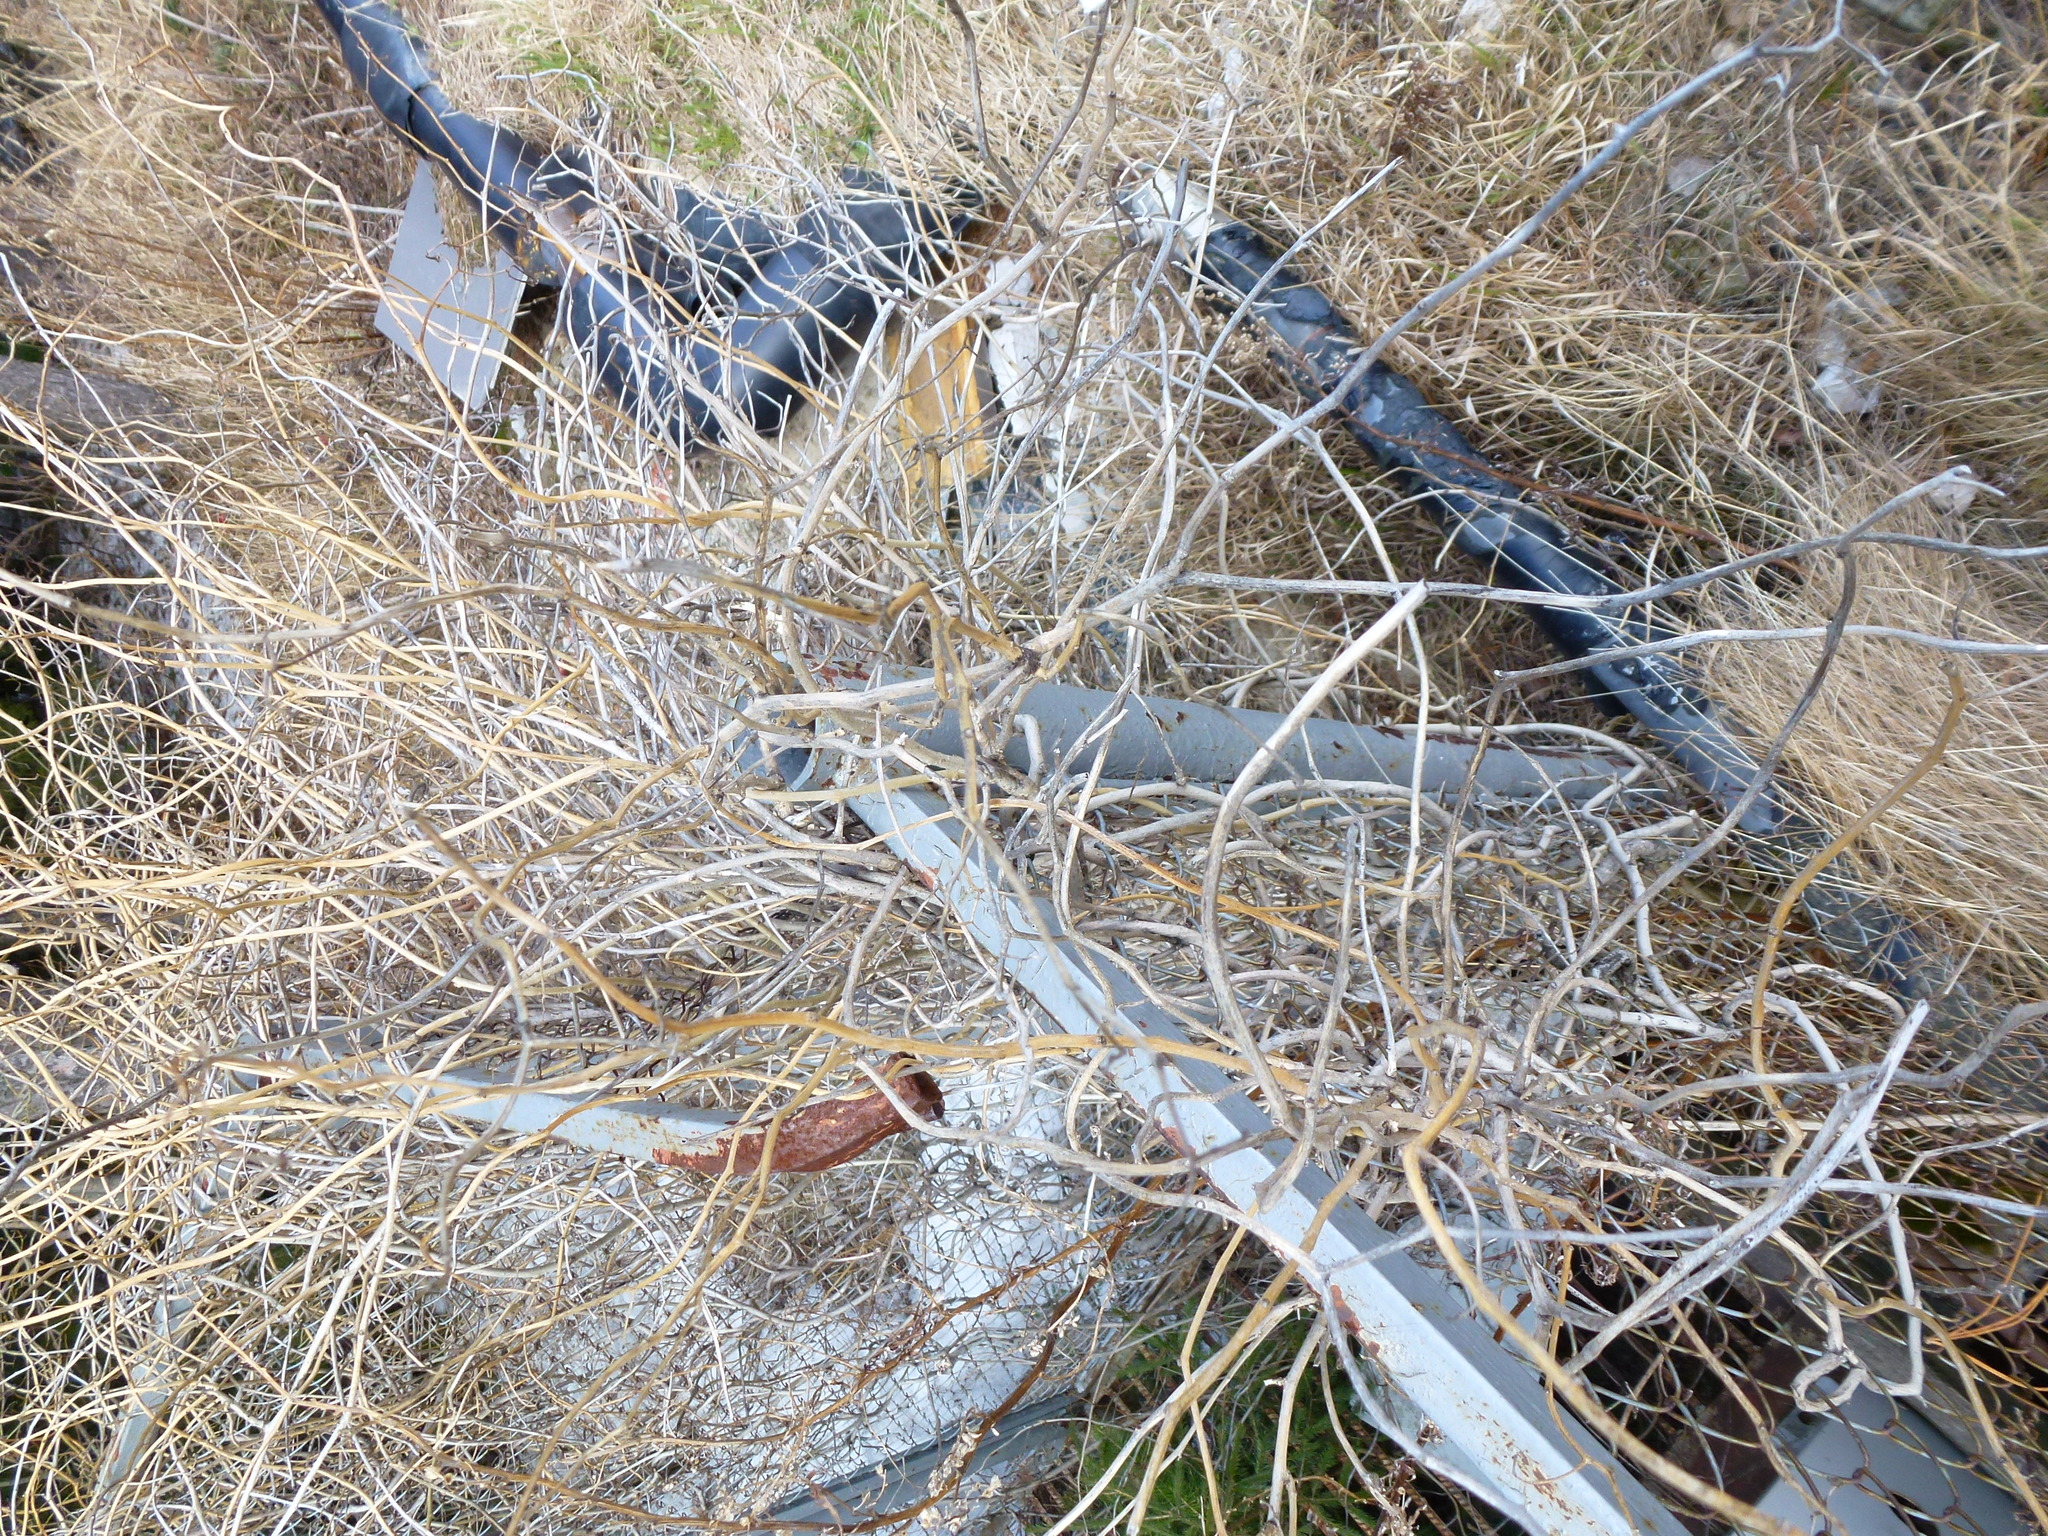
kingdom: Plantae
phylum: Tracheophyta
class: Magnoliopsida
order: Solanales
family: Solanaceae
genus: Solanum
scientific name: Solanum dulcamara
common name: Climbing nightshade
